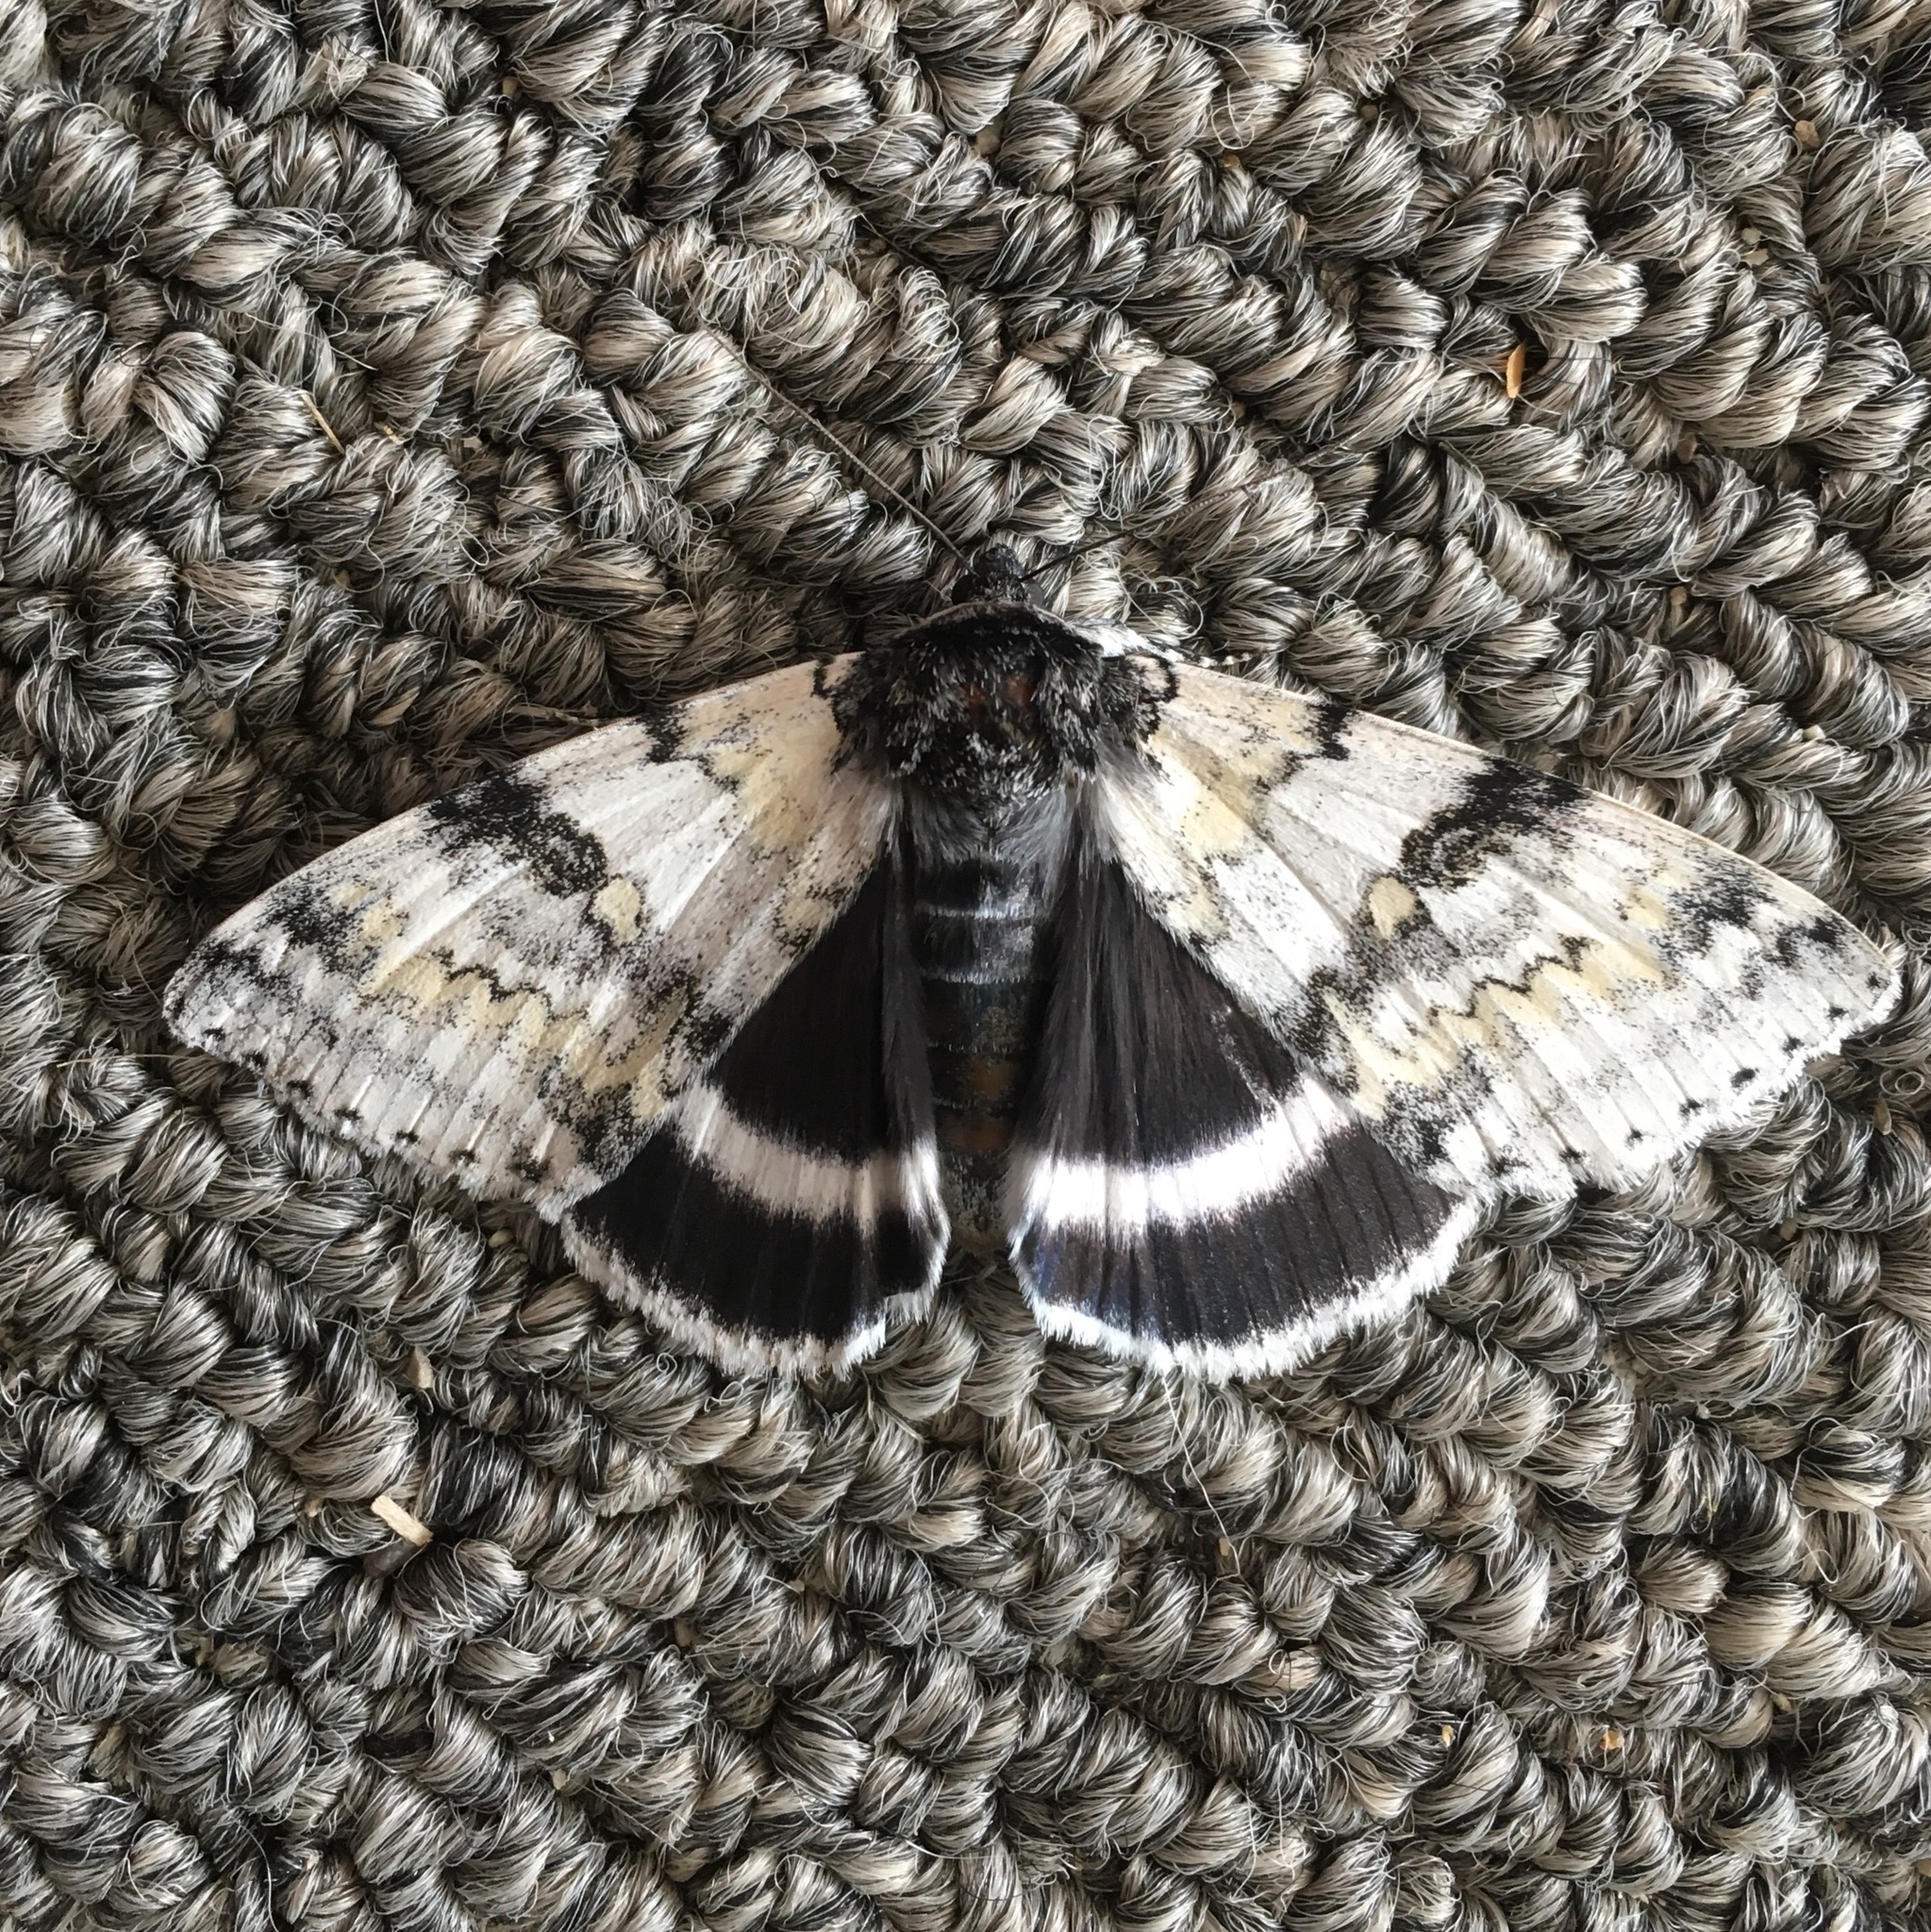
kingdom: Animalia
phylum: Arthropoda
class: Insecta
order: Lepidoptera
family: Erebidae
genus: Catocala
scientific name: Catocala relicta
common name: White underwing
